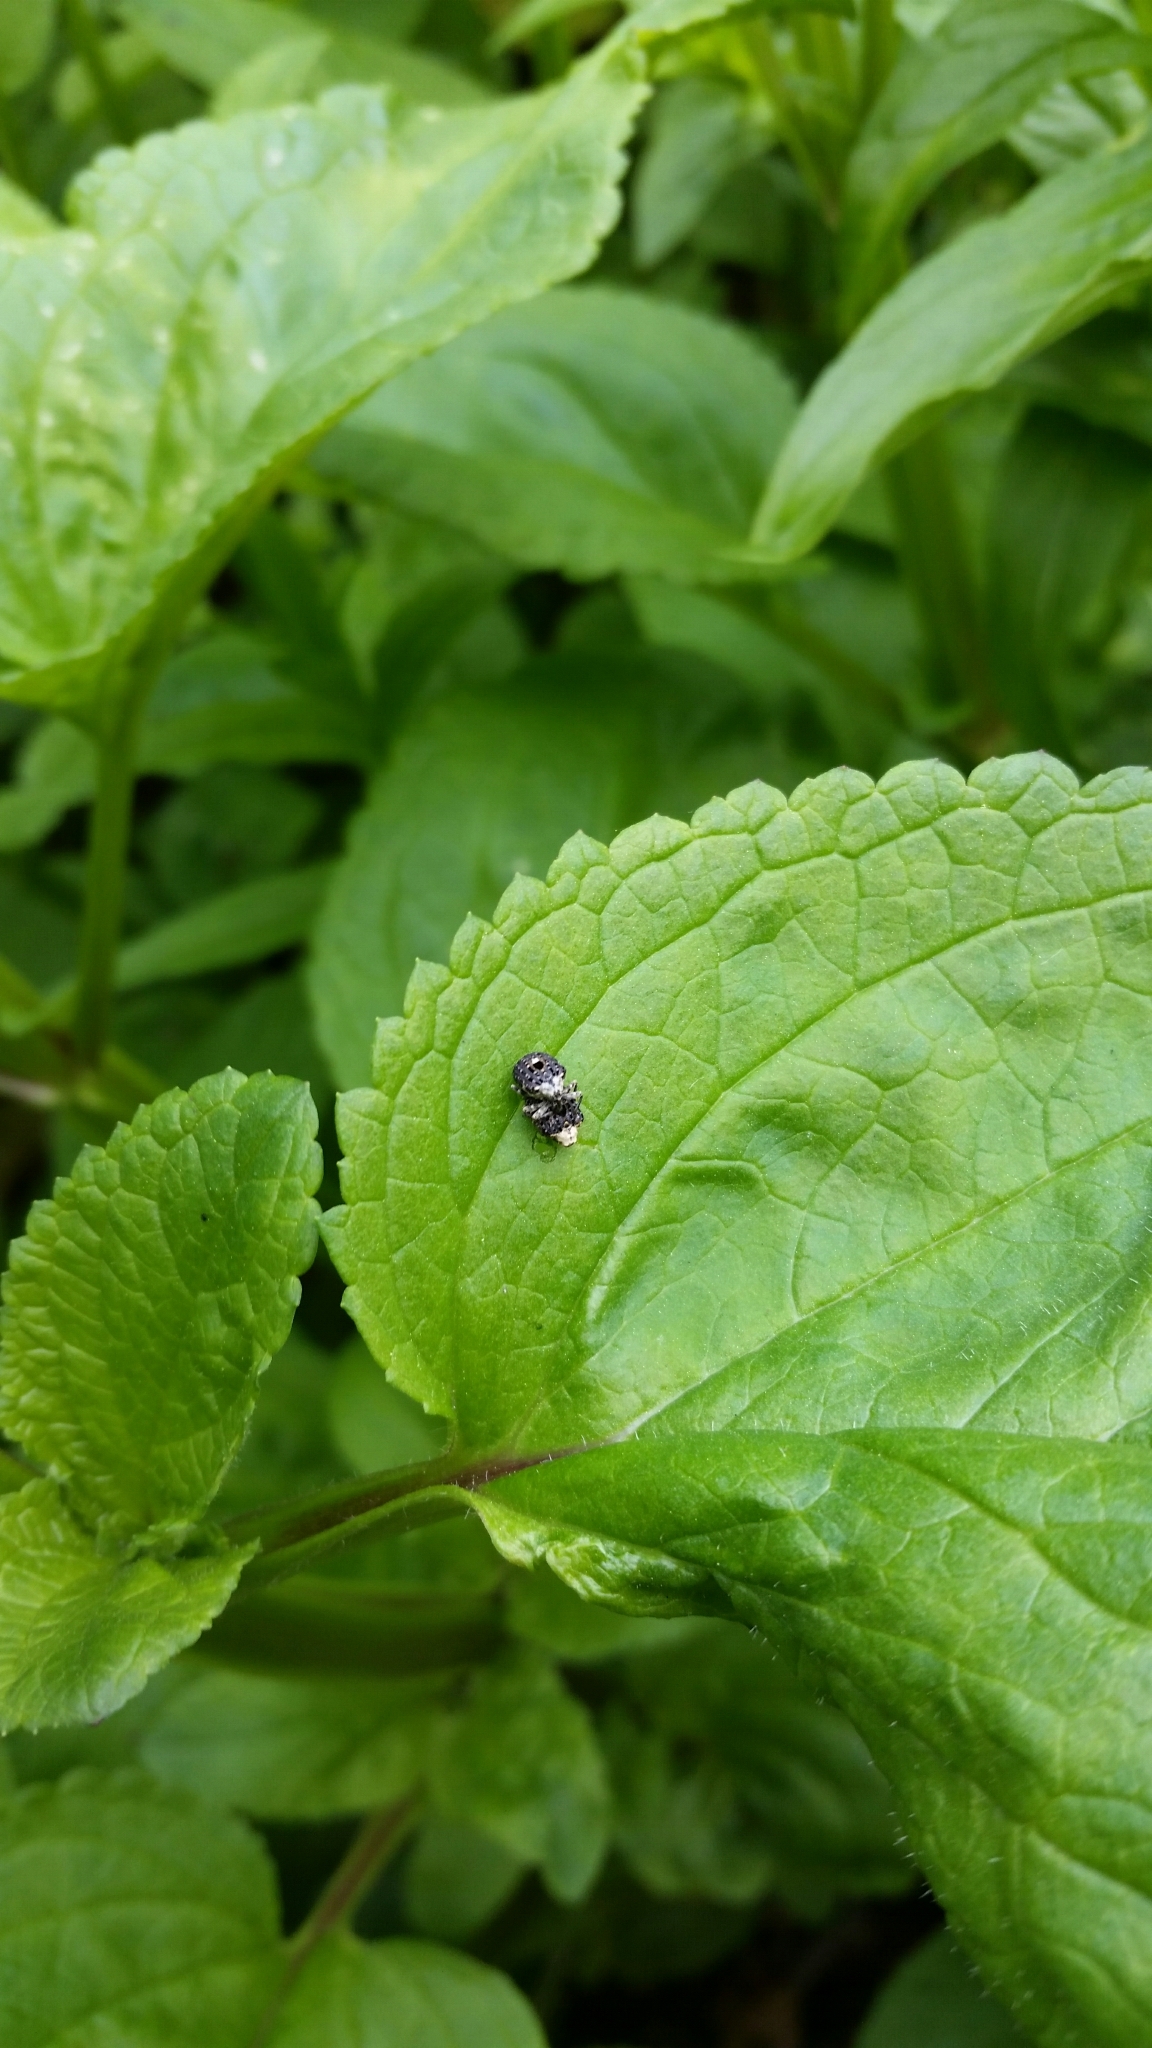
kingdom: Animalia
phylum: Arthropoda
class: Insecta
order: Coleoptera
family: Curculionidae
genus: Cionus
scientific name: Cionus scrophulariae
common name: Common figwort weevil
